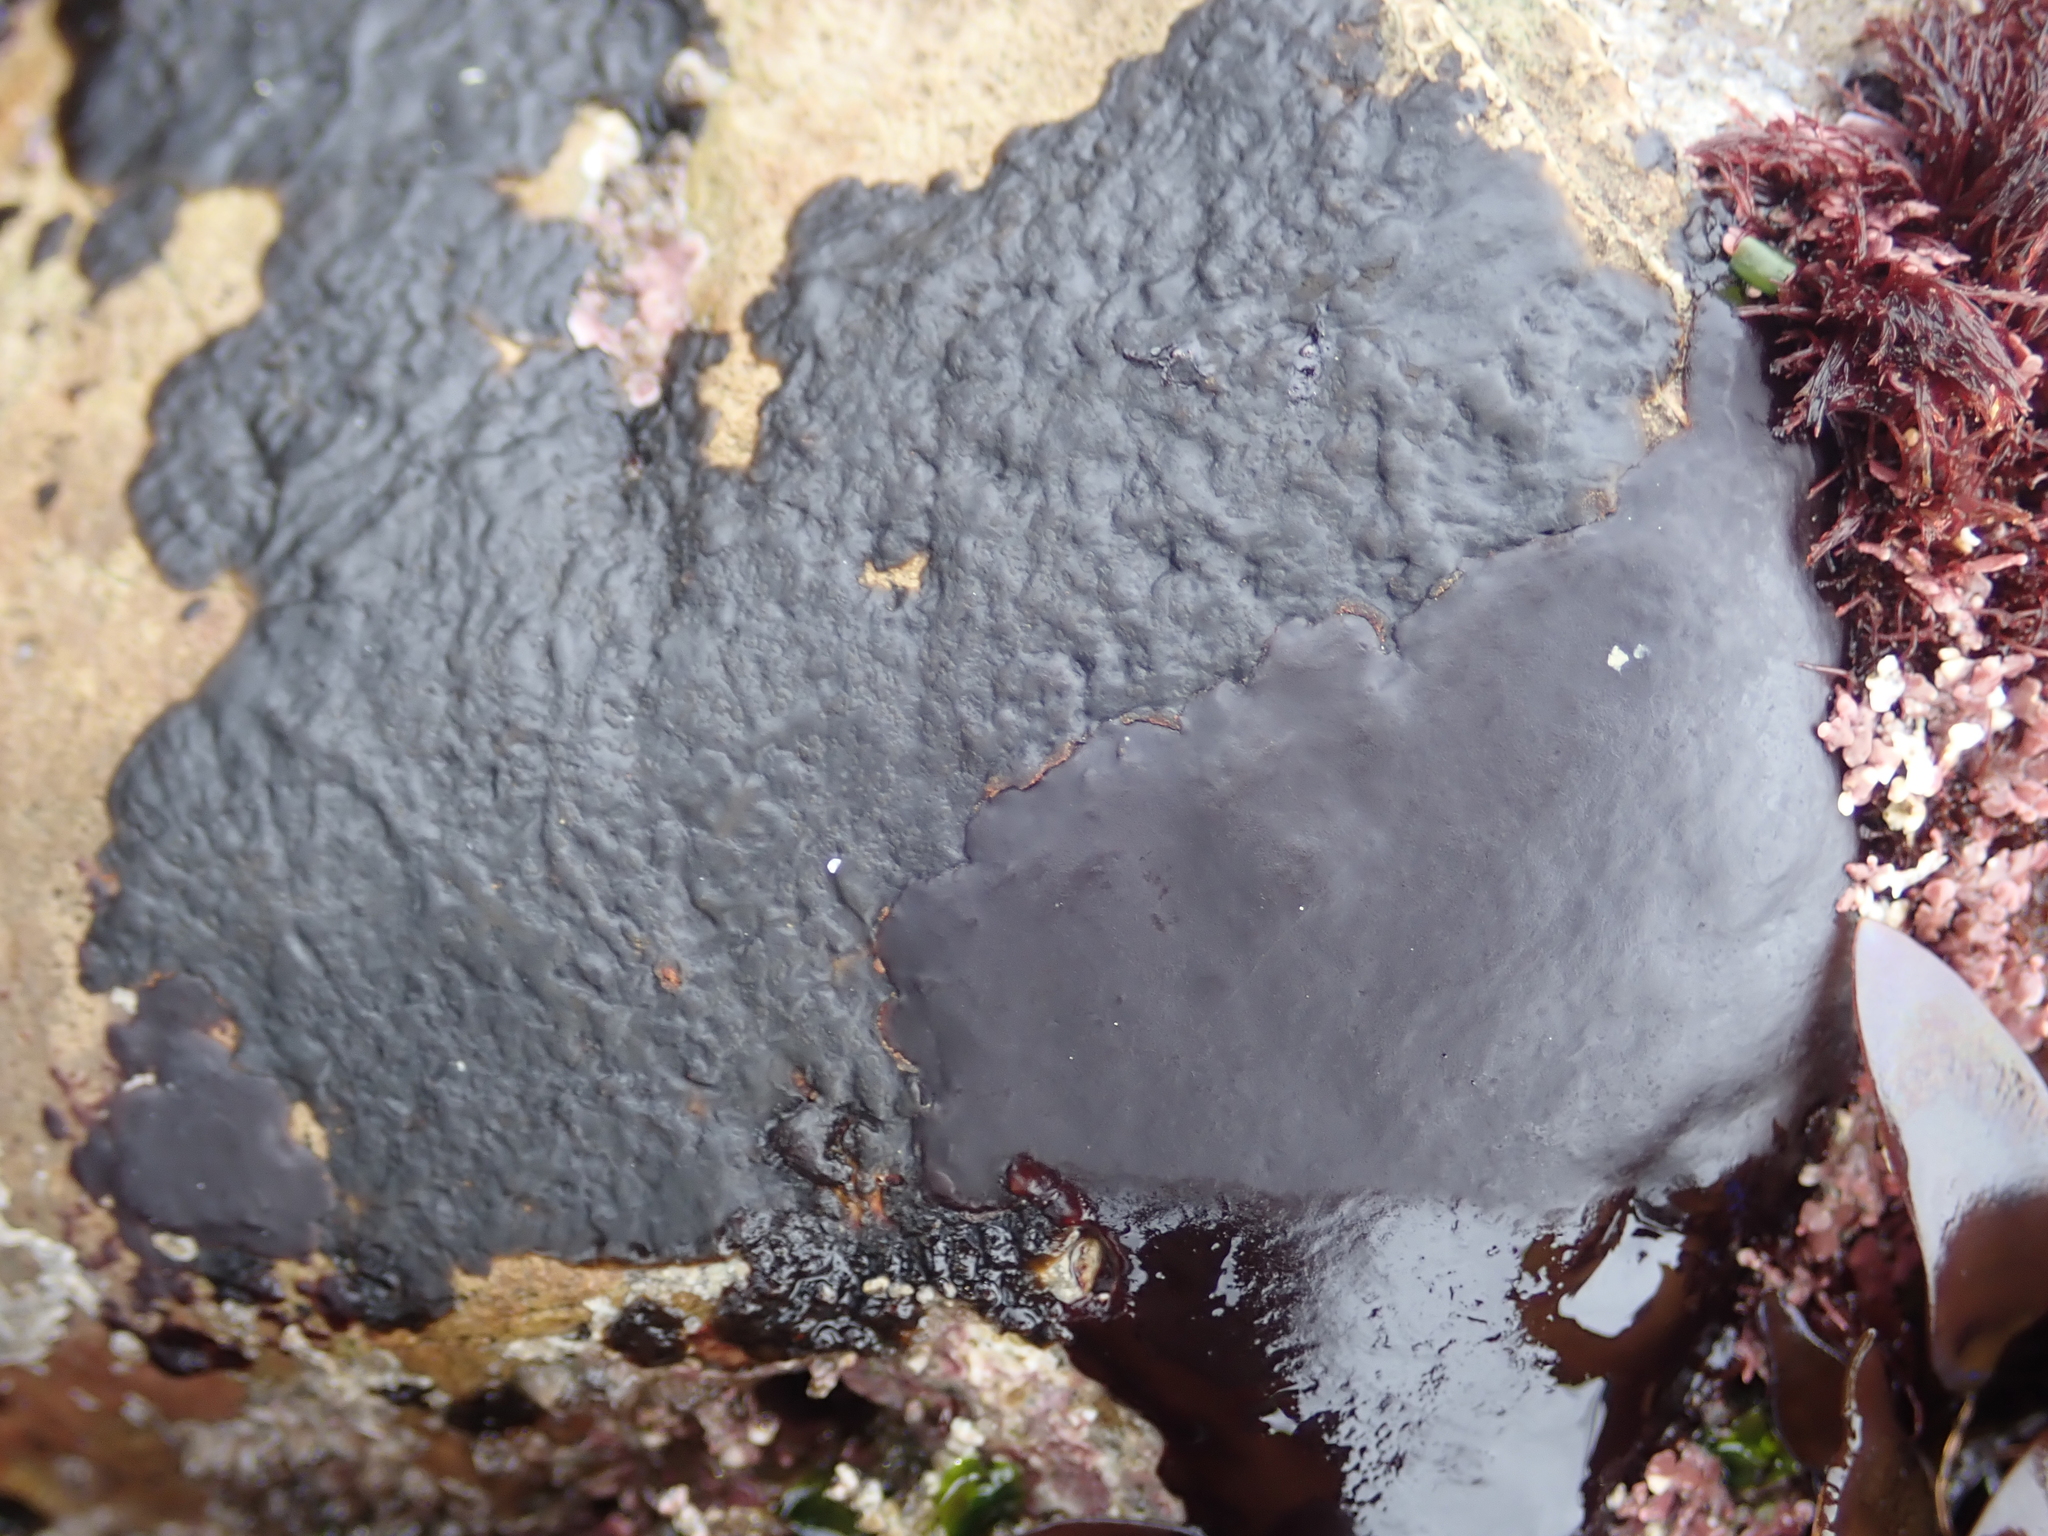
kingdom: Plantae
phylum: Rhodophyta
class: Florideophyceae
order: Gigartinales
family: Phyllophoraceae
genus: Mastocarpus
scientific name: Mastocarpus papillatus
